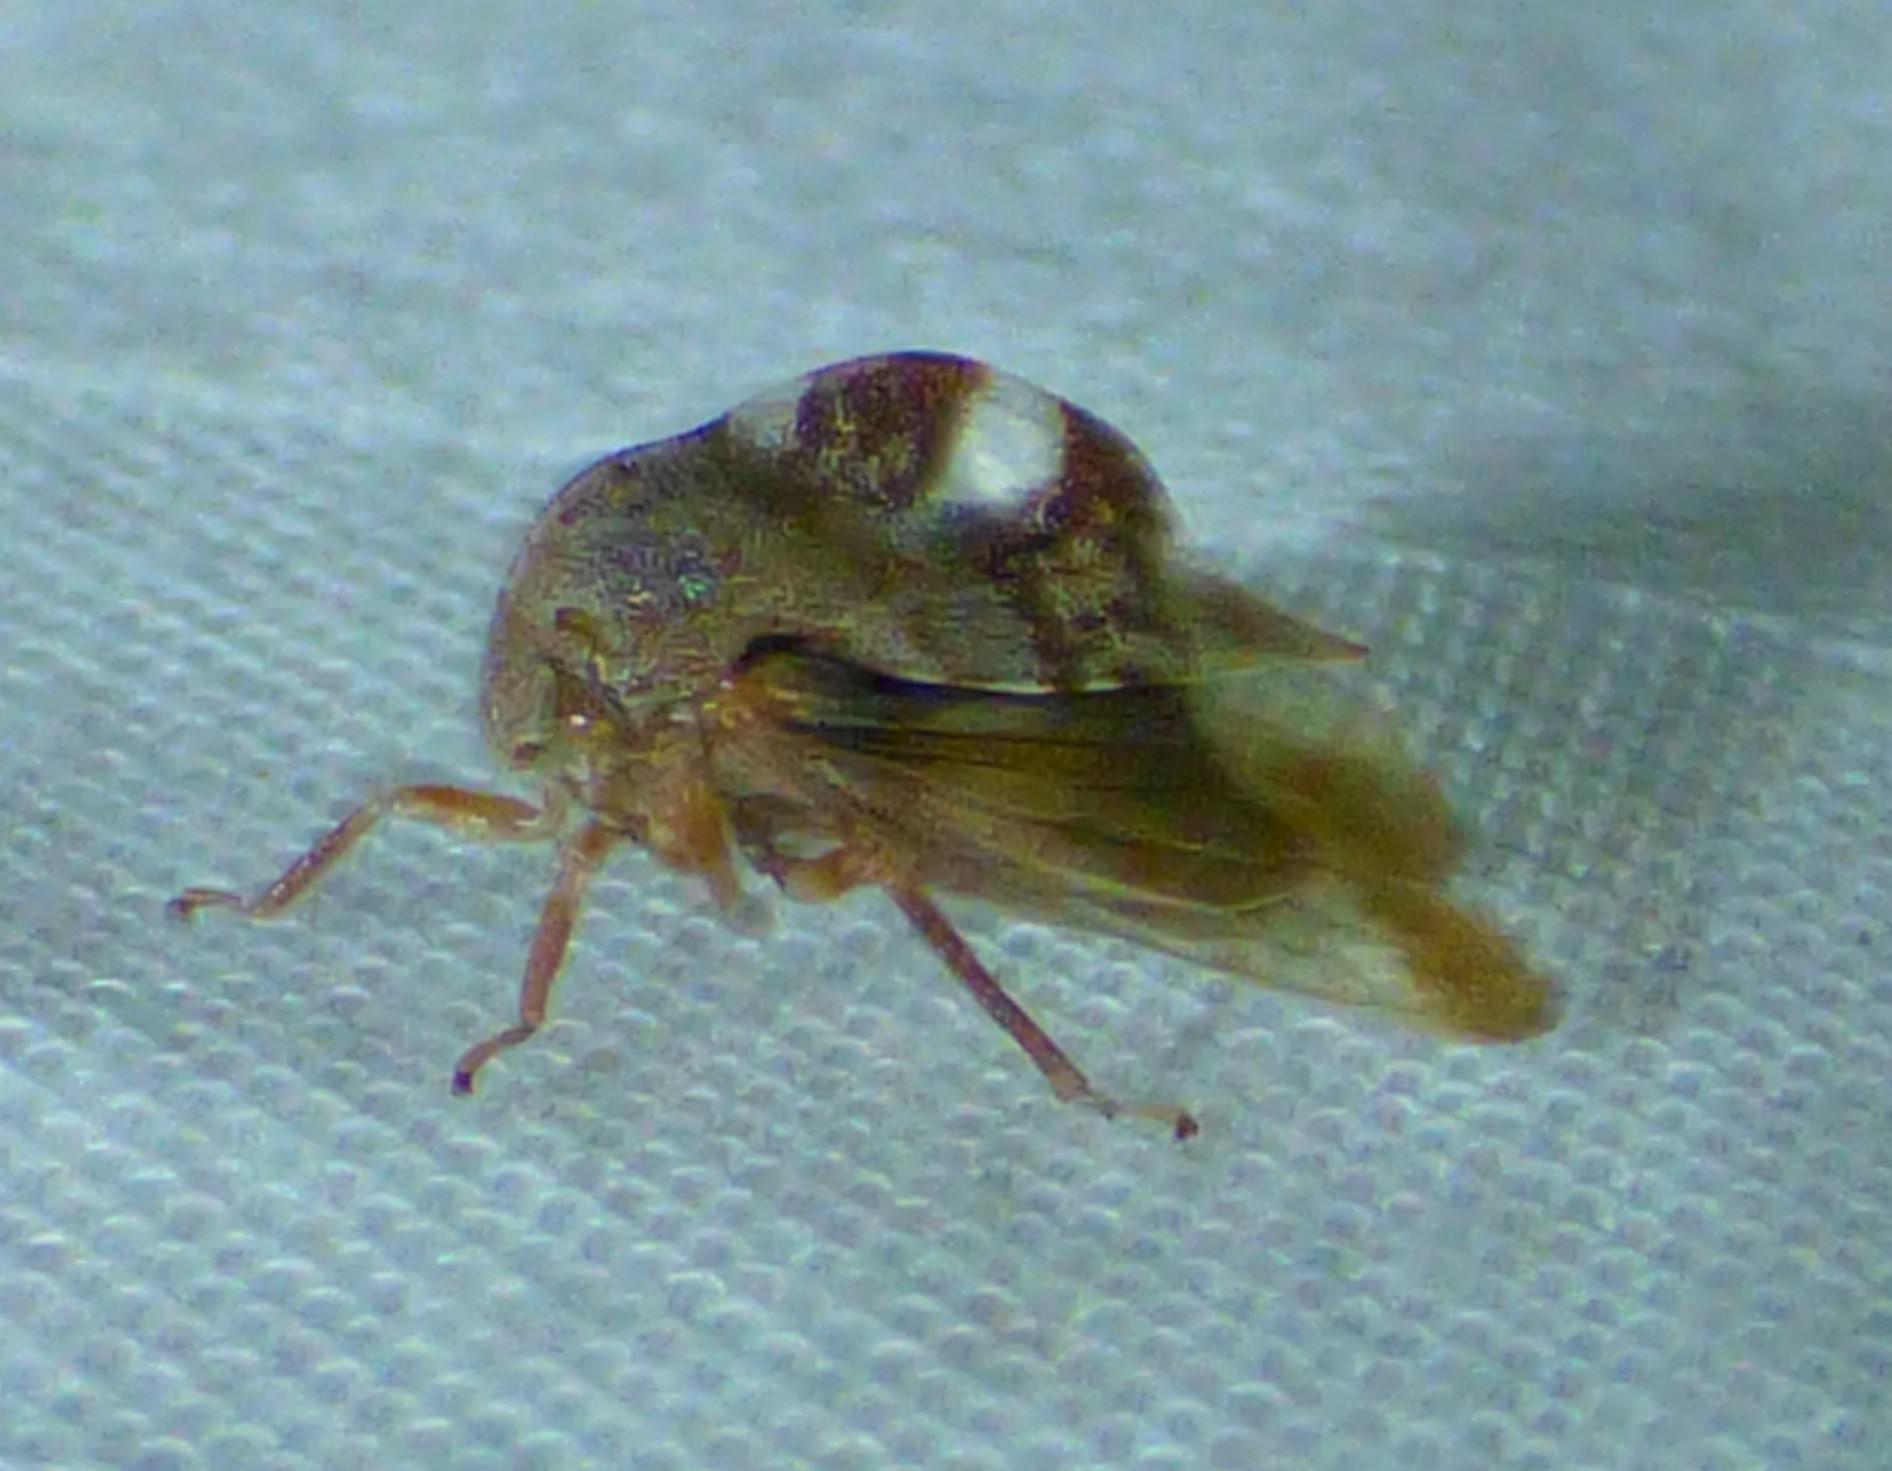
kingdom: Animalia
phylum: Arthropoda
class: Insecta
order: Hemiptera
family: Membracidae
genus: Cyrtolobus
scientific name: Cyrtolobus tuberosa
